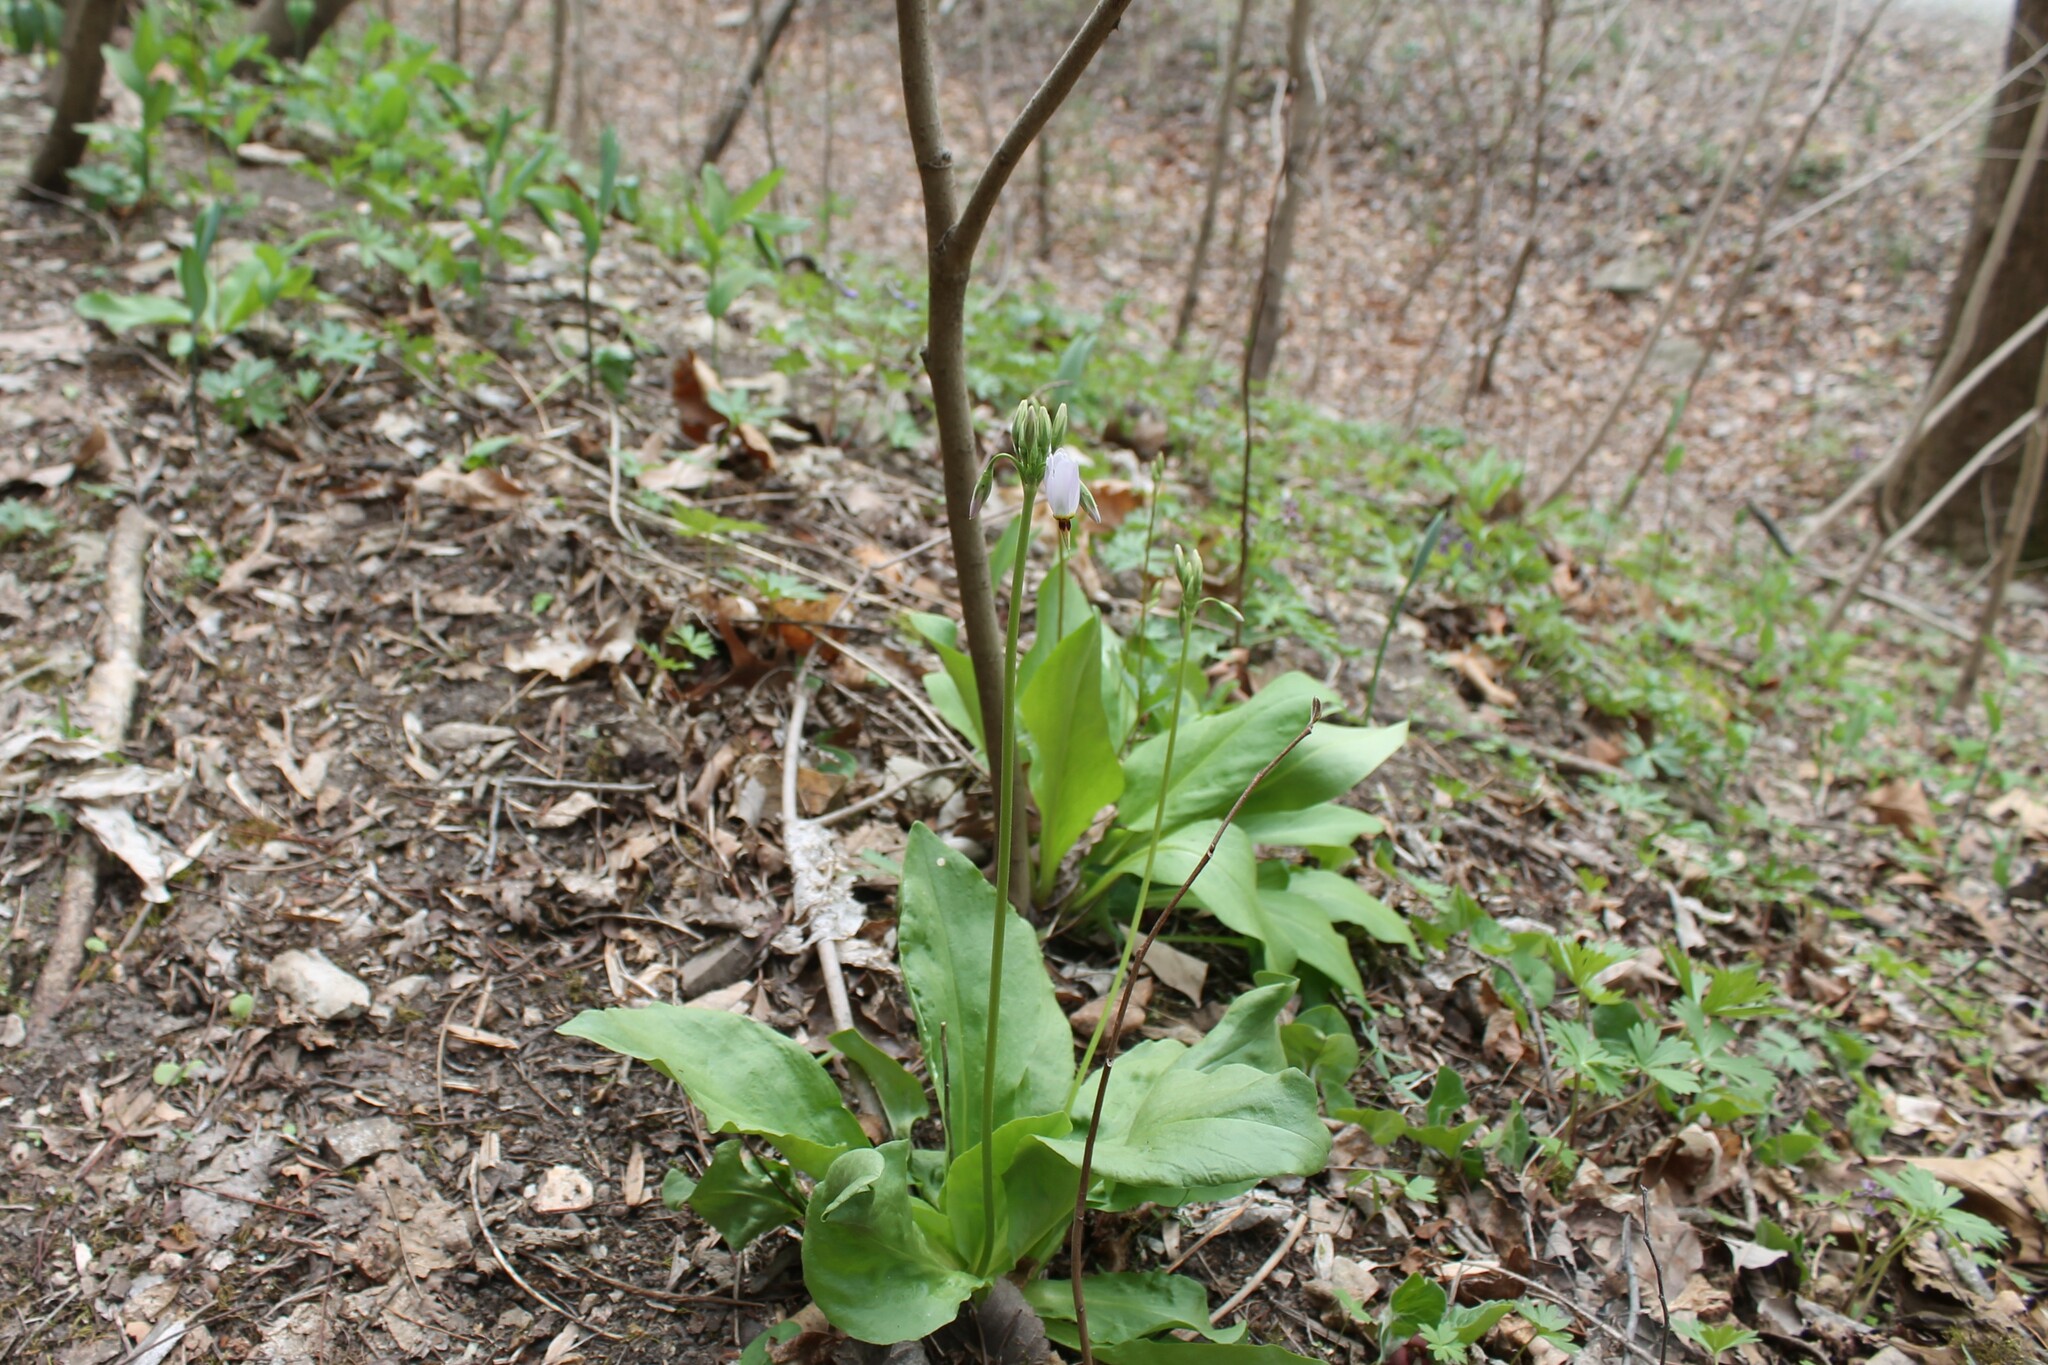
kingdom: Plantae
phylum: Tracheophyta
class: Magnoliopsida
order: Ericales
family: Primulaceae
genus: Dodecatheon
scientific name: Dodecatheon meadia
